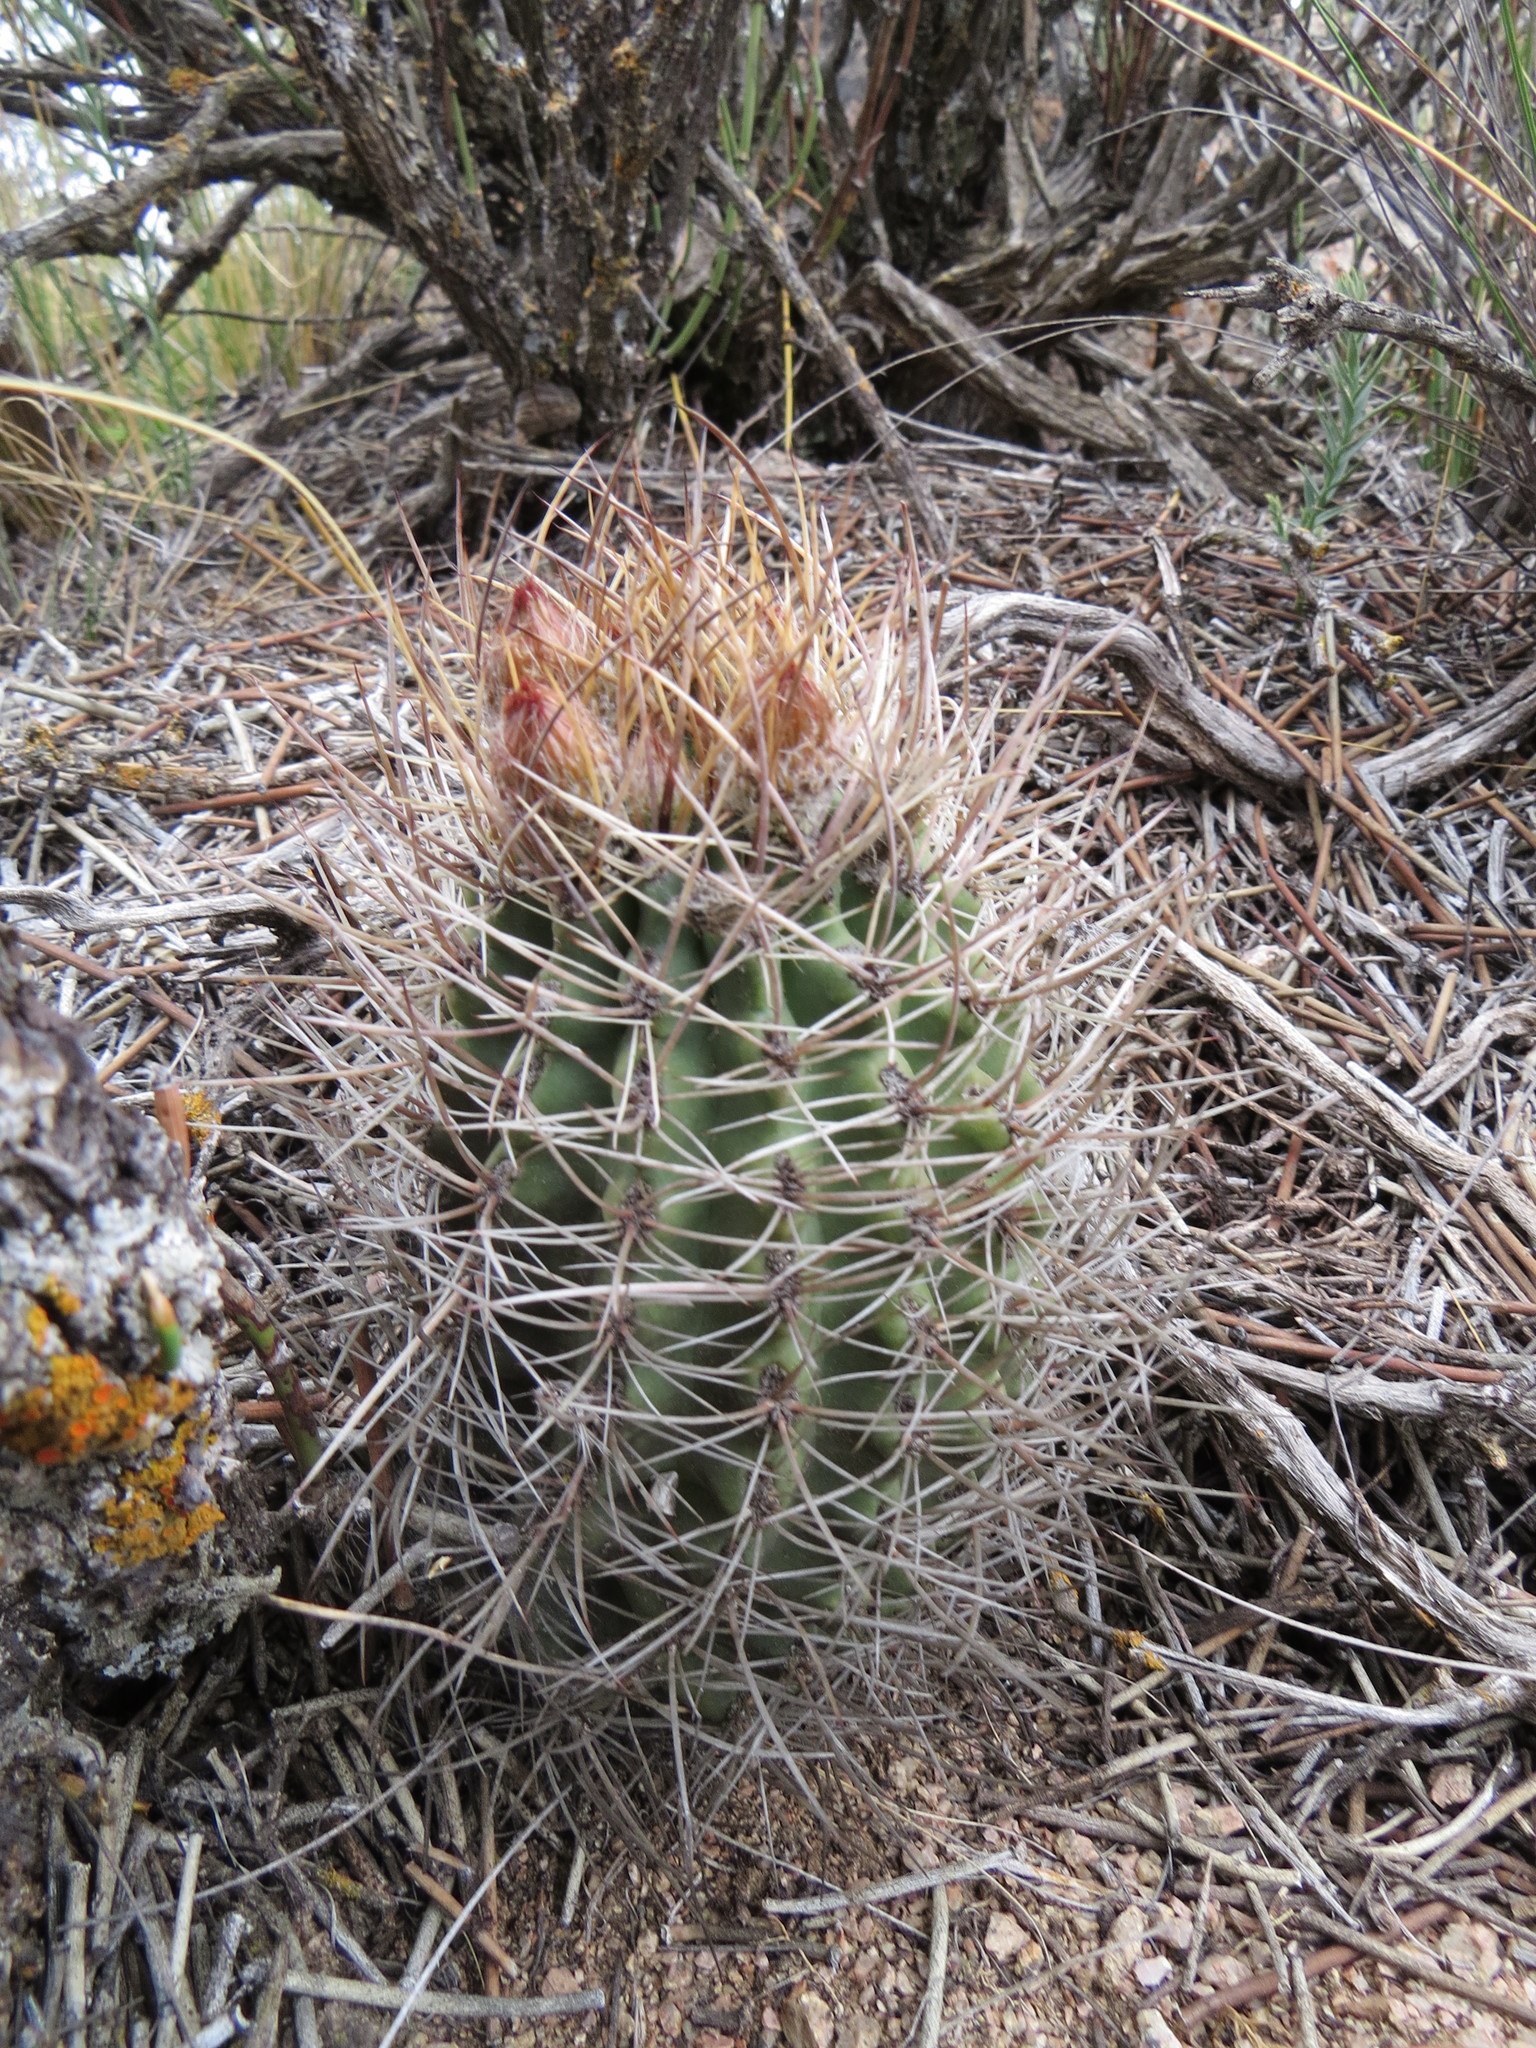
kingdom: Plantae
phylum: Tracheophyta
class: Magnoliopsida
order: Caryophyllales
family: Cactaceae
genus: Eriosyce
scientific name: Eriosyce strausiana
